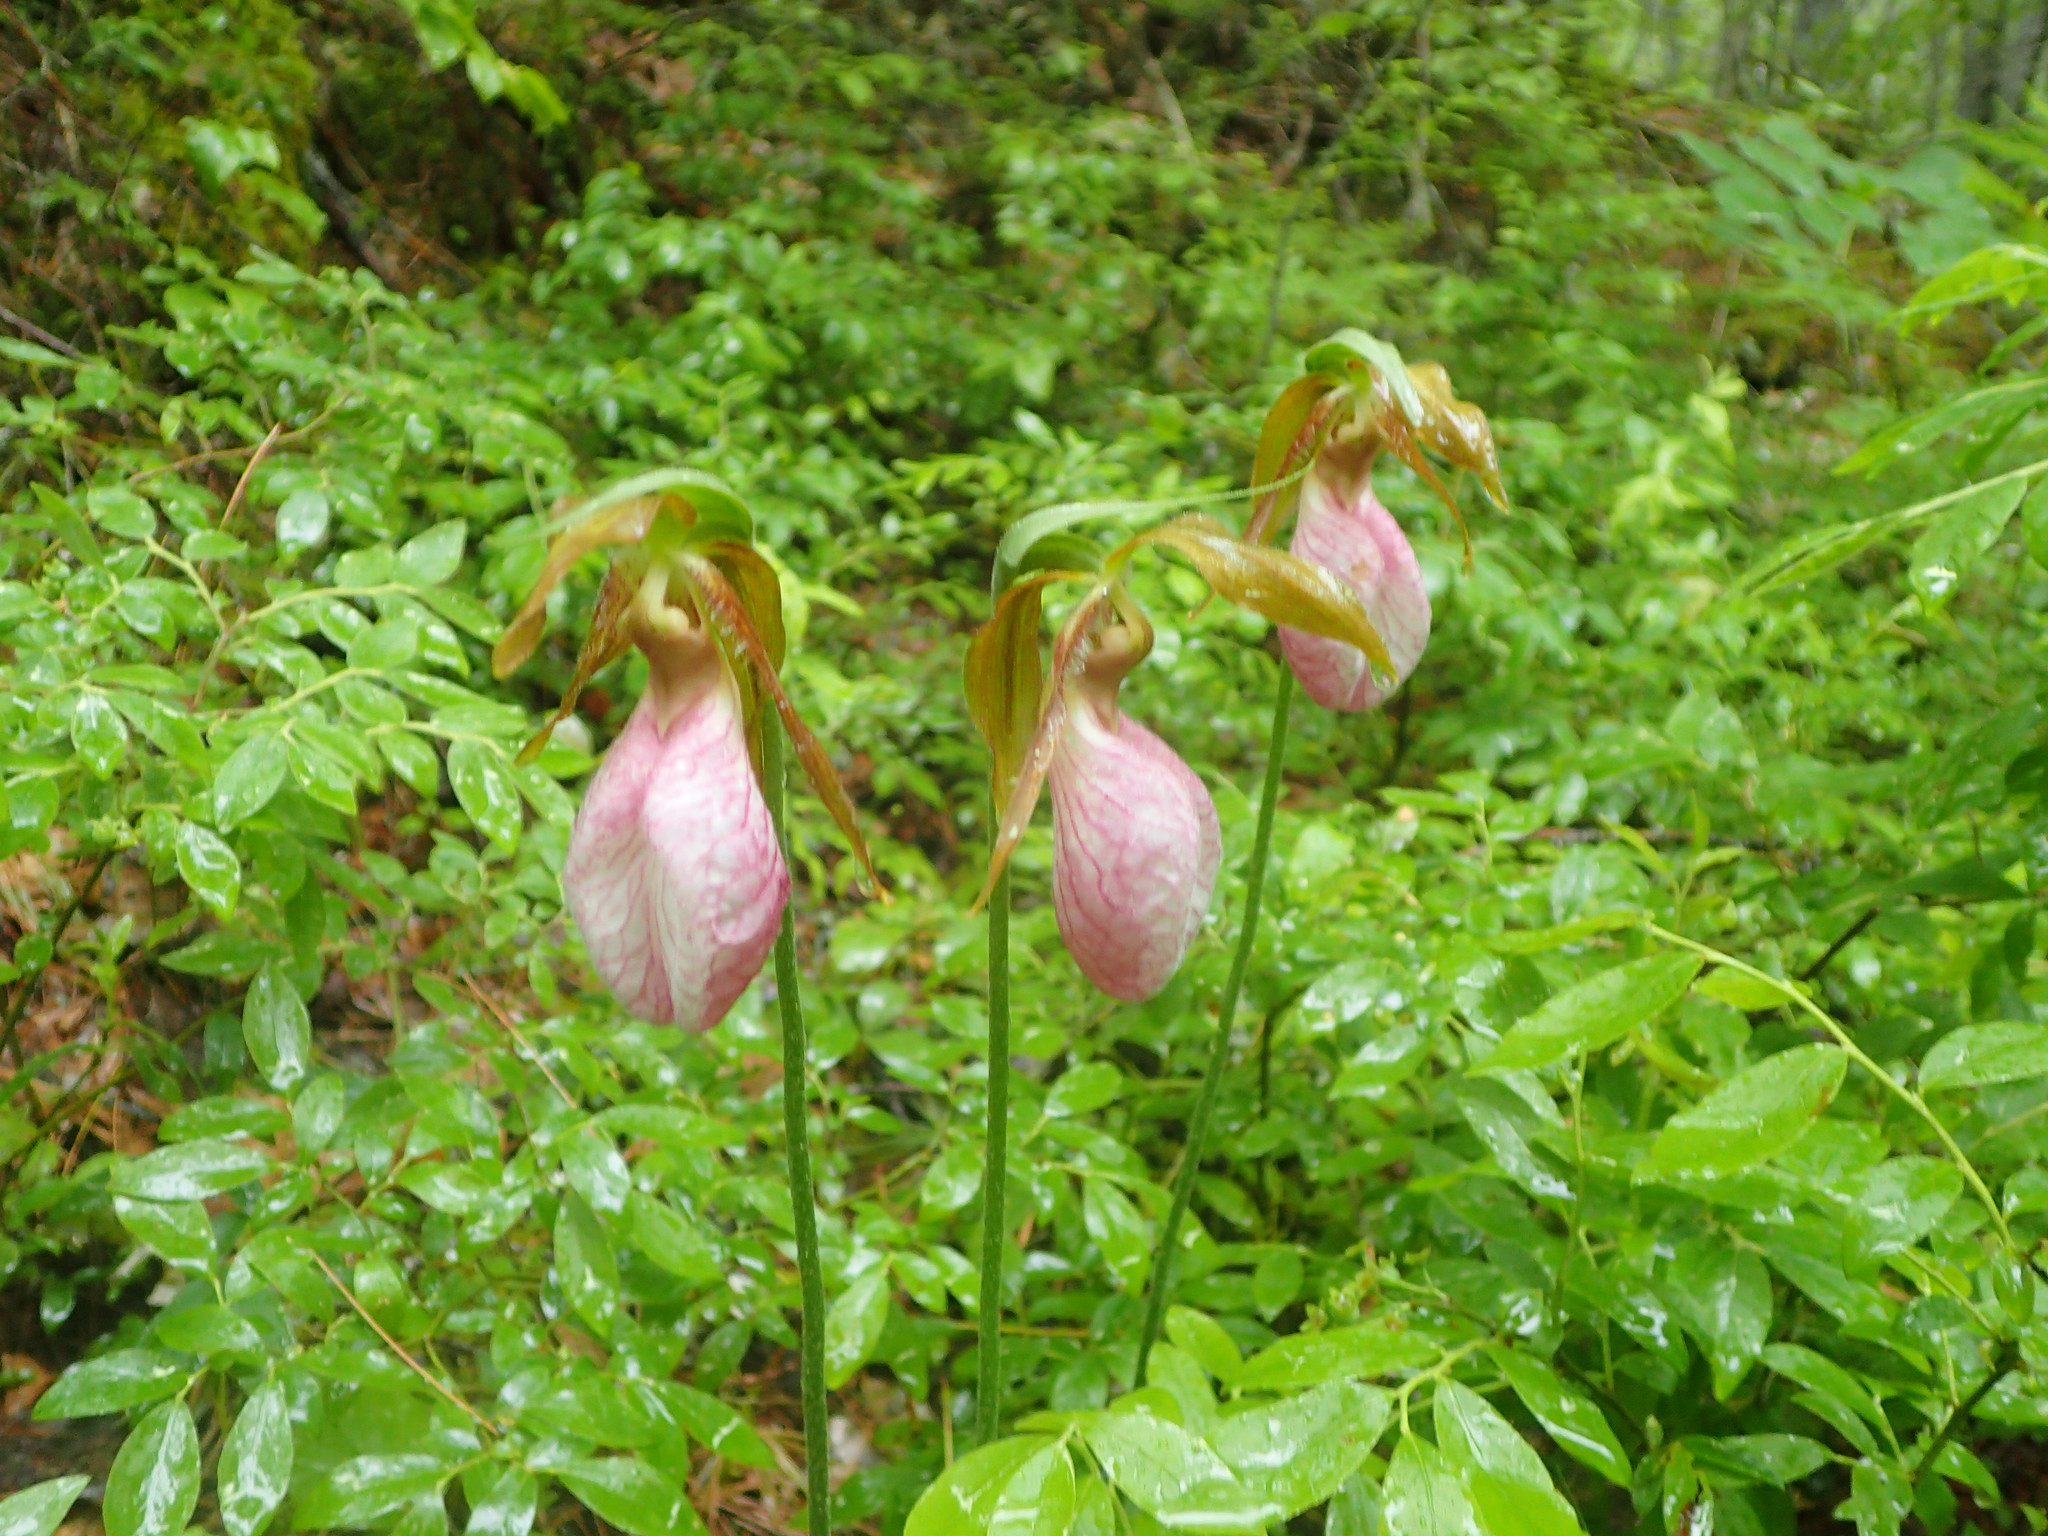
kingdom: Plantae
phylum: Tracheophyta
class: Liliopsida
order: Asparagales
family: Orchidaceae
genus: Cypripedium
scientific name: Cypripedium acaule
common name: Pink lady's-slipper
